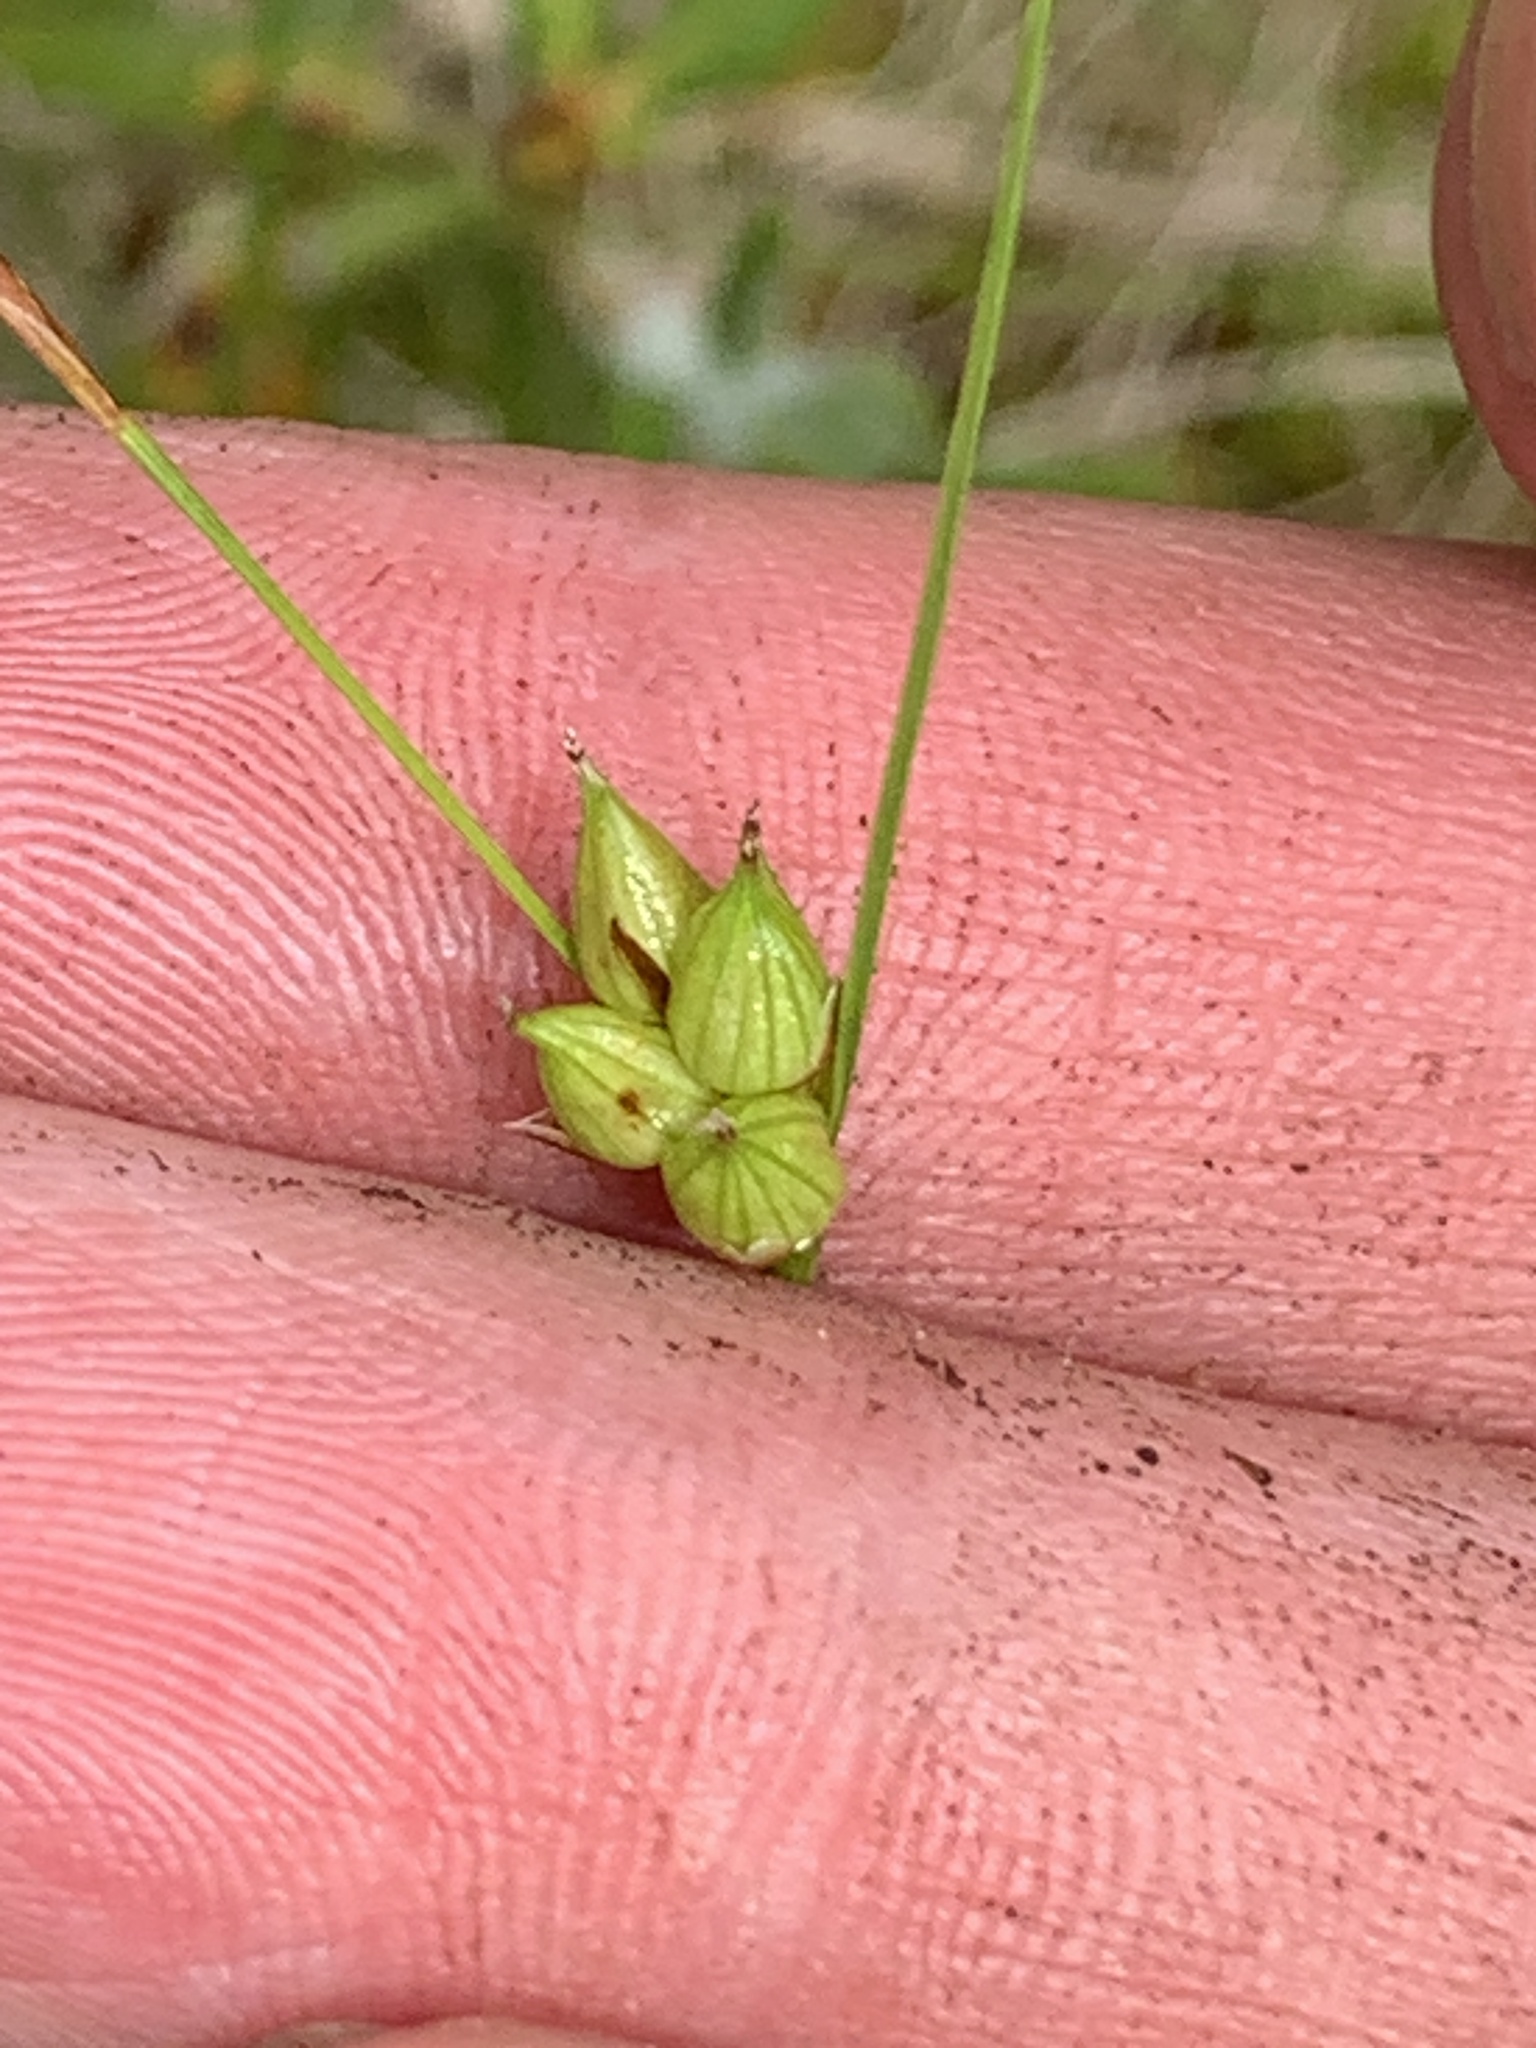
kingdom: Plantae
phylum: Tracheophyta
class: Liliopsida
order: Poales
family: Cyperaceae
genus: Carex
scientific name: Carex oligosperma
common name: Few-seed sedge
